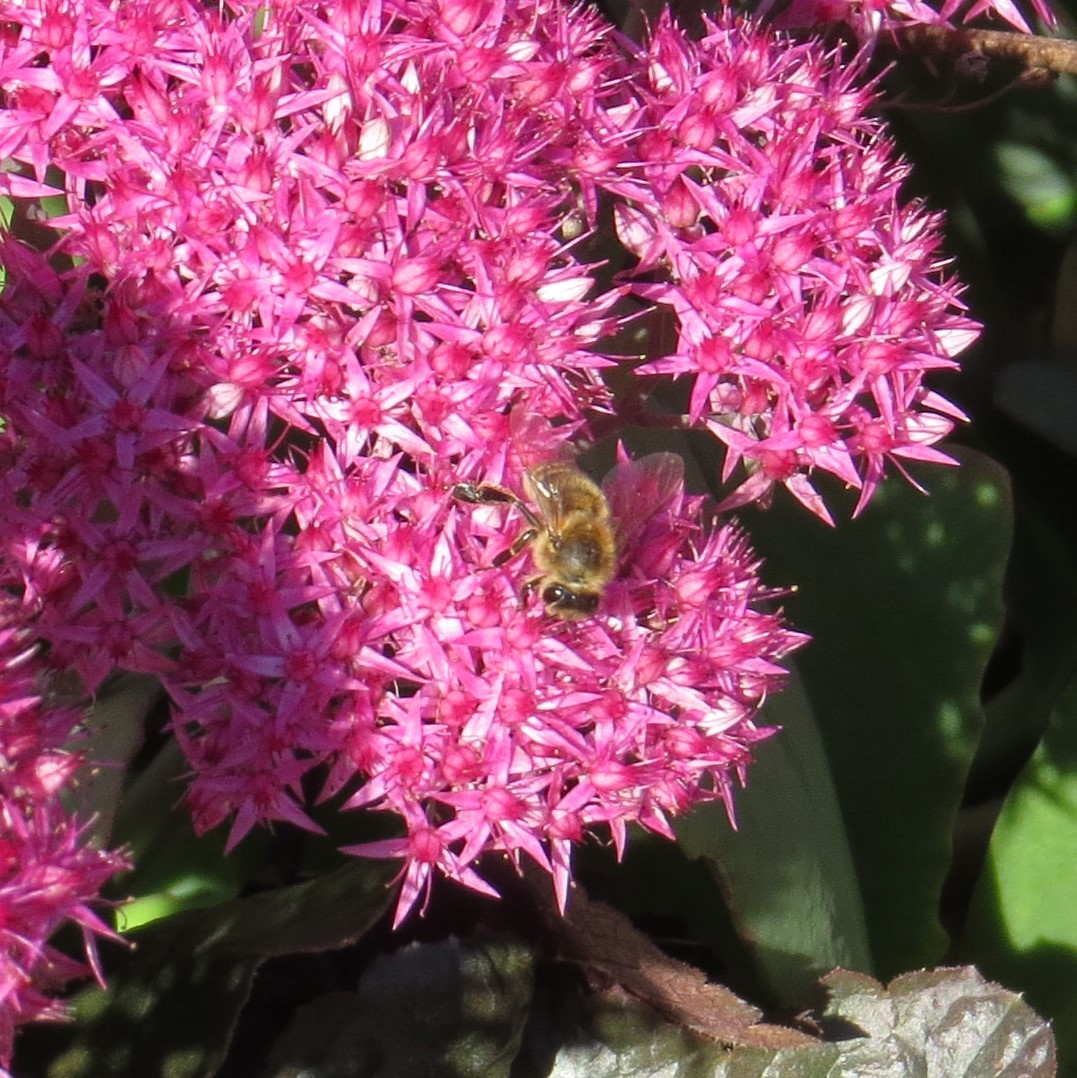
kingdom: Animalia
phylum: Arthropoda
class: Insecta
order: Hymenoptera
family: Apidae
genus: Apis
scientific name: Apis mellifera
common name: Honey bee
